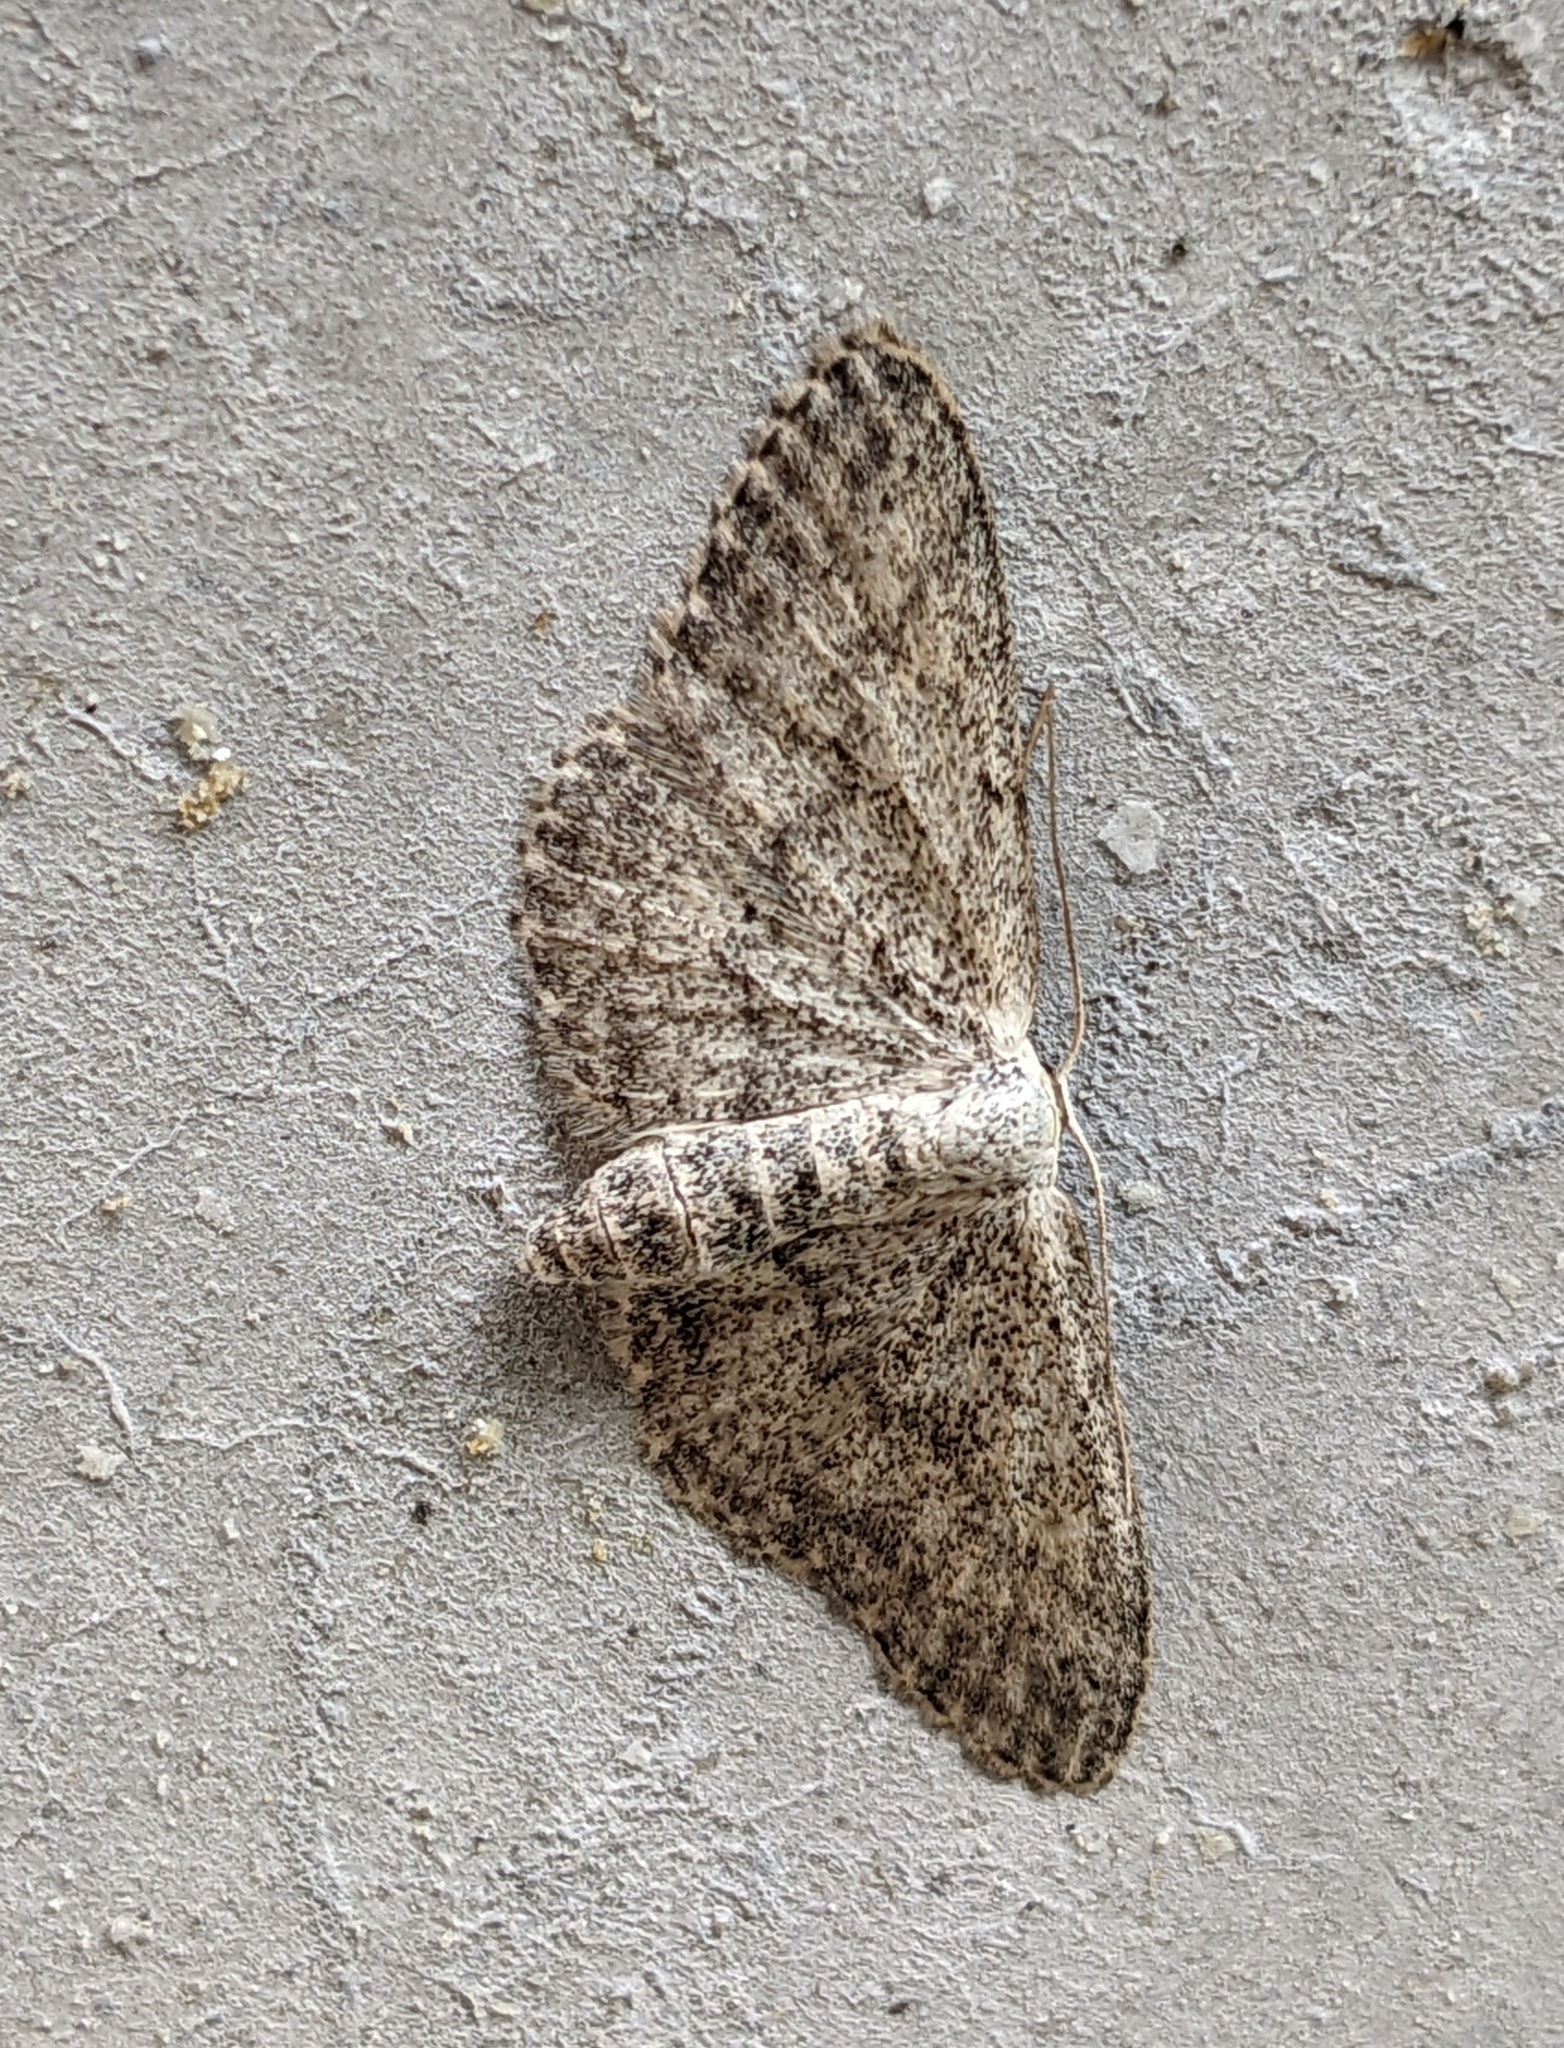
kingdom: Animalia
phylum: Arthropoda
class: Insecta
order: Lepidoptera
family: Geometridae
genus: Idaea
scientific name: Idaea seriata
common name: Small dusty wave
